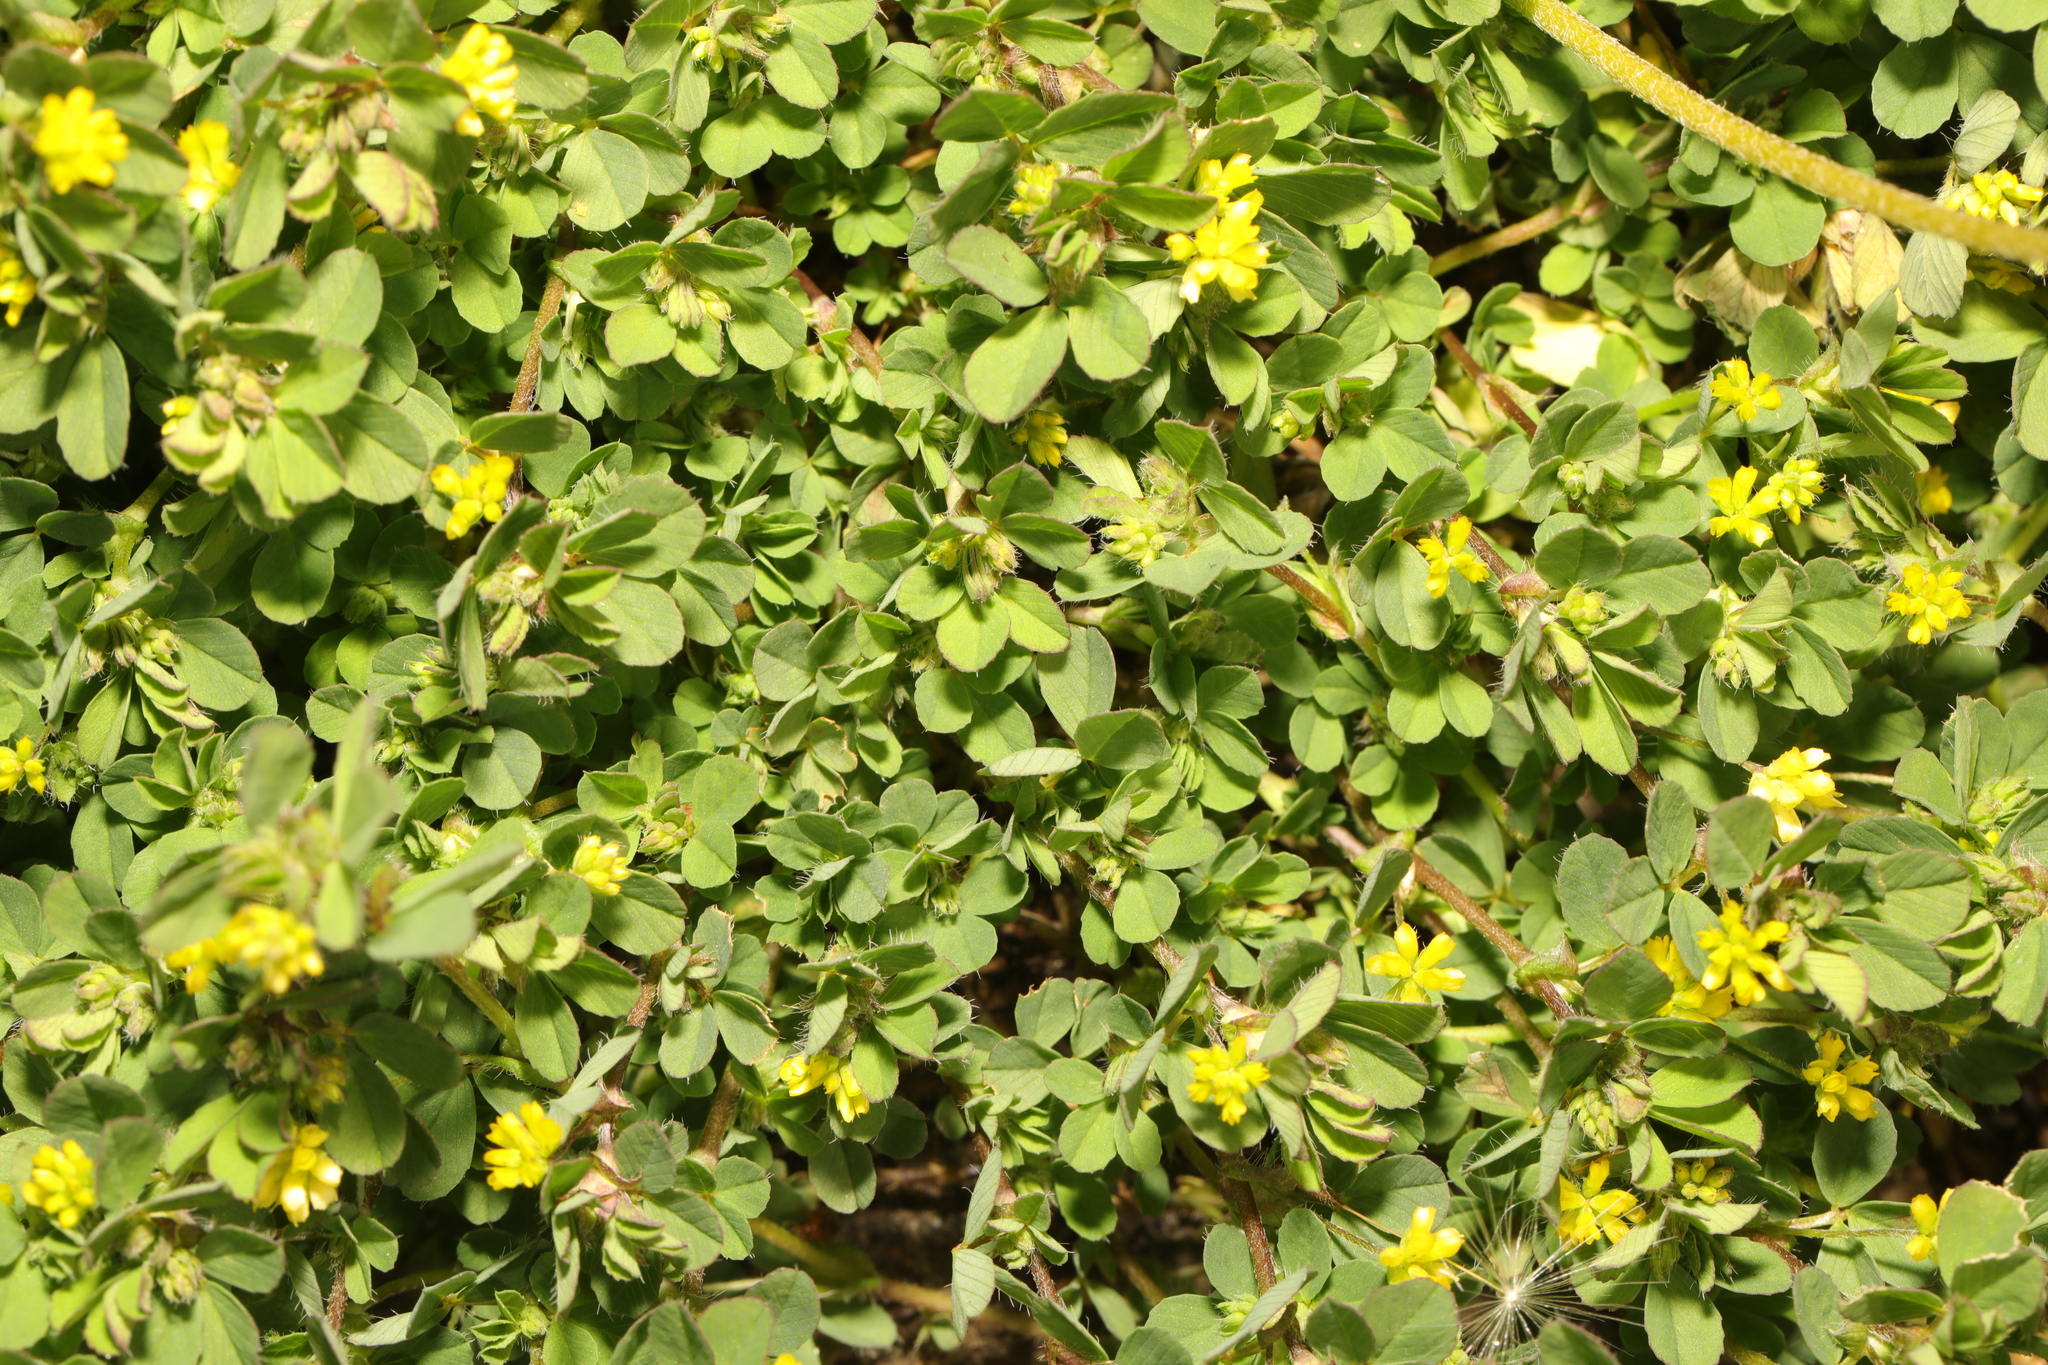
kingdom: Plantae
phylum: Tracheophyta
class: Magnoliopsida
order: Fabales
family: Fabaceae
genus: Trifolium
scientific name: Trifolium dubium
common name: Suckling clover
